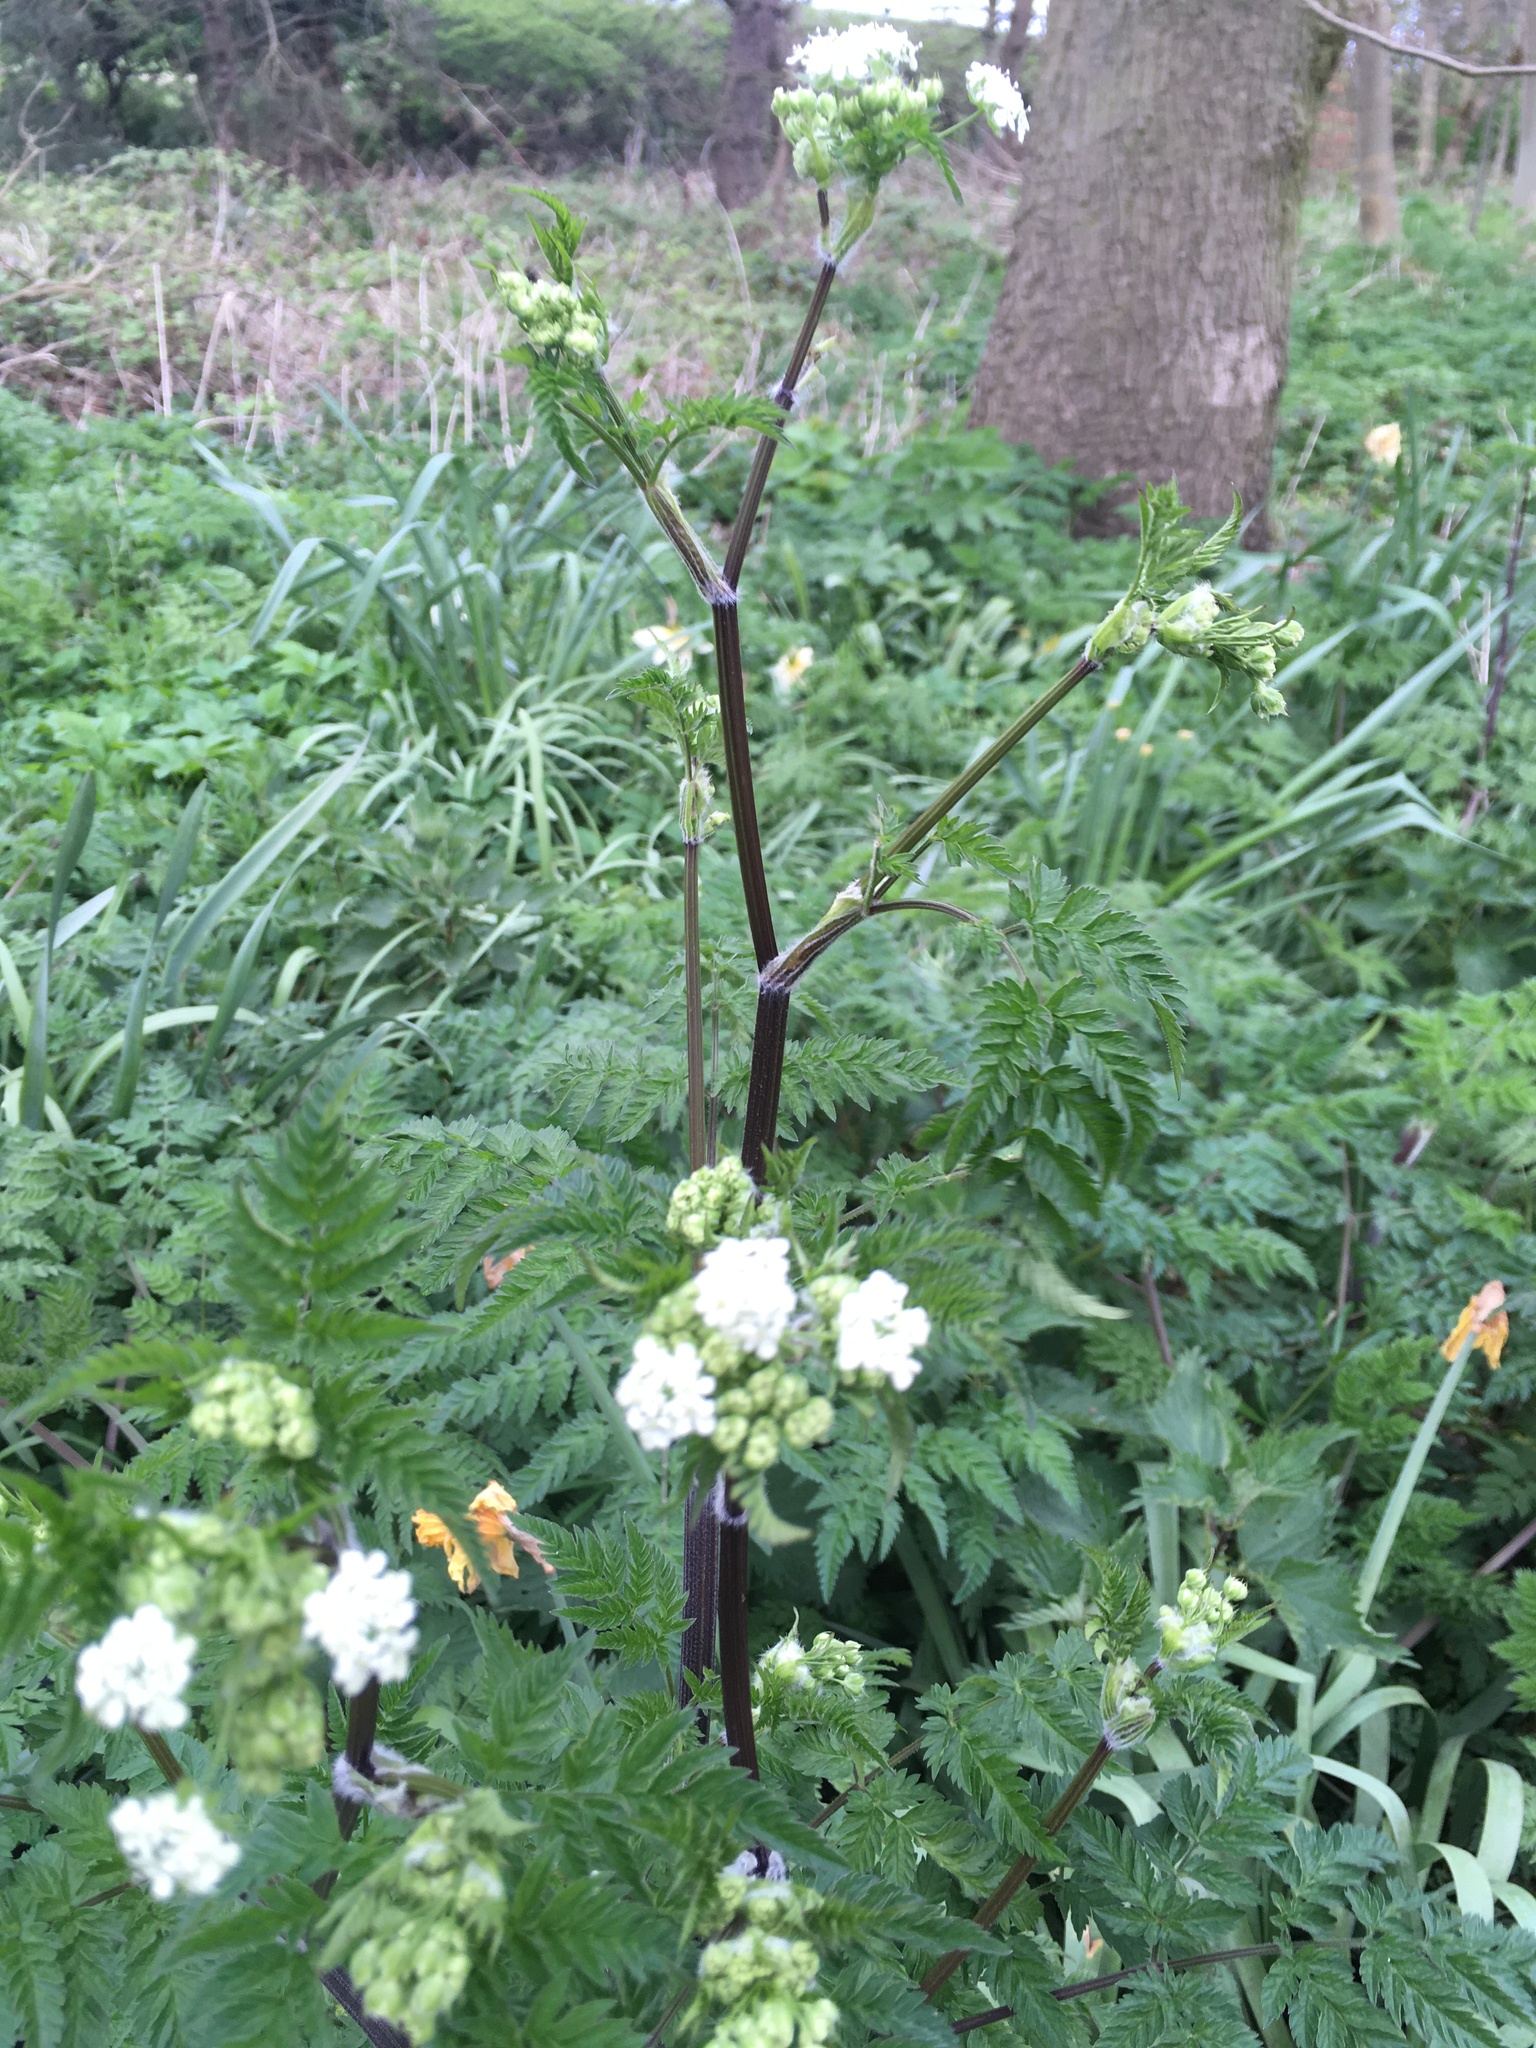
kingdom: Plantae
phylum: Tracheophyta
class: Magnoliopsida
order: Apiales
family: Apiaceae
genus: Anthriscus
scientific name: Anthriscus sylvestris
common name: Cow parsley
